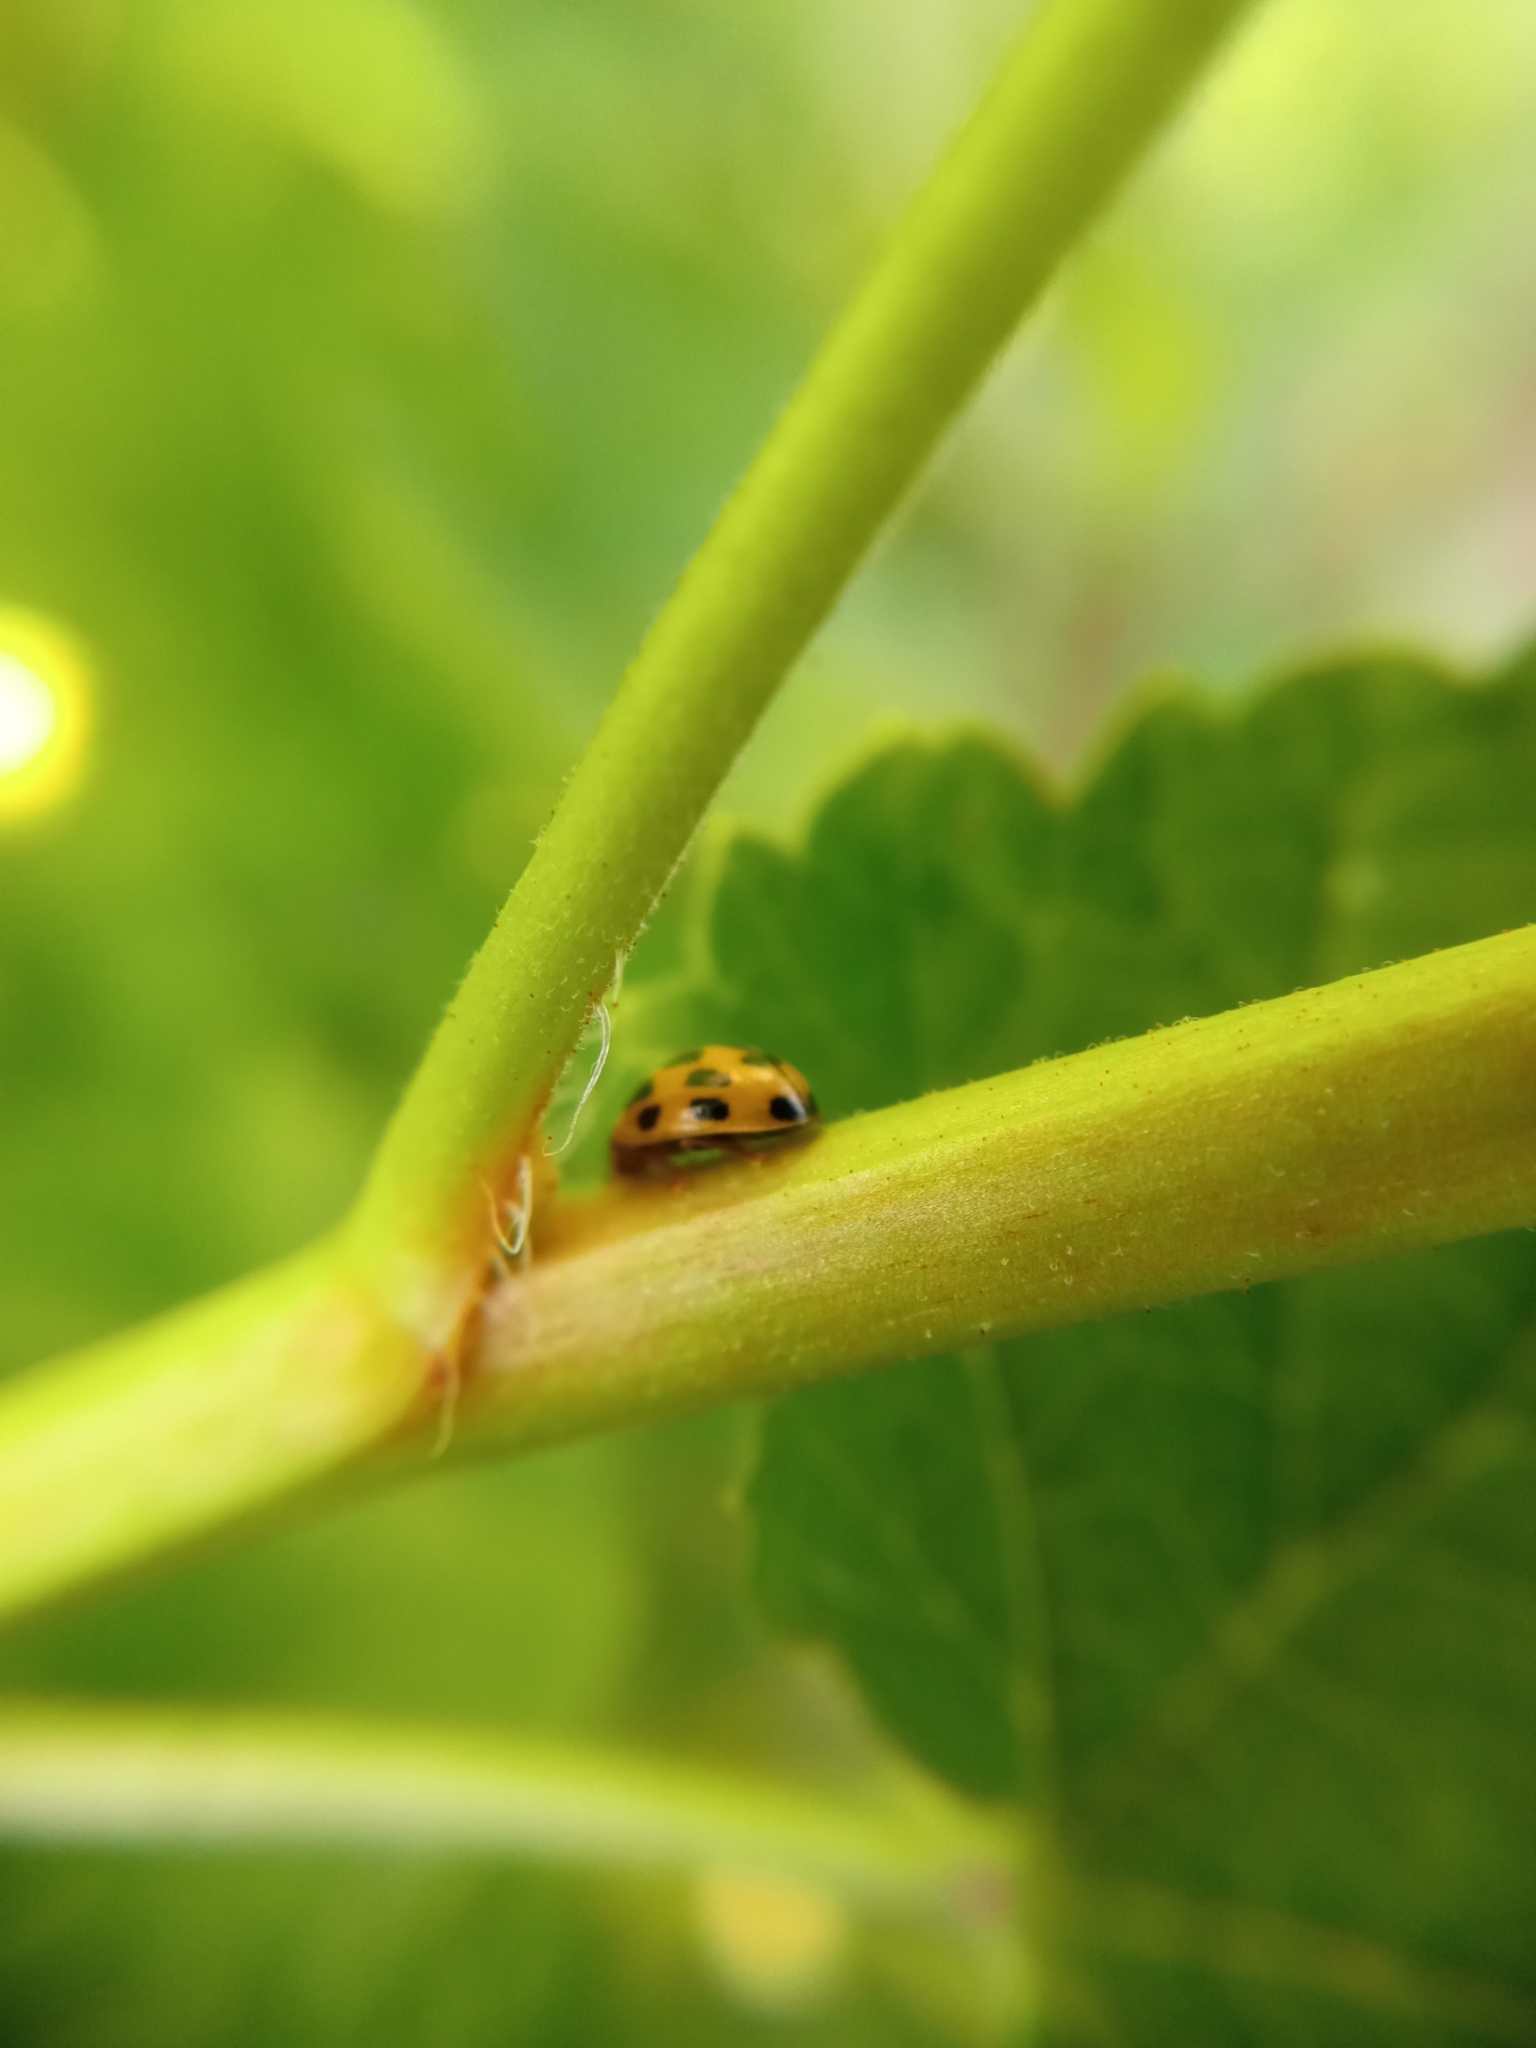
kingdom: Animalia
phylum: Arthropoda
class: Insecta
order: Coleoptera
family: Coccinellidae
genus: Propylaea
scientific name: Propylaea quatuordecimpunctata
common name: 14-spotted ladybird beetle
